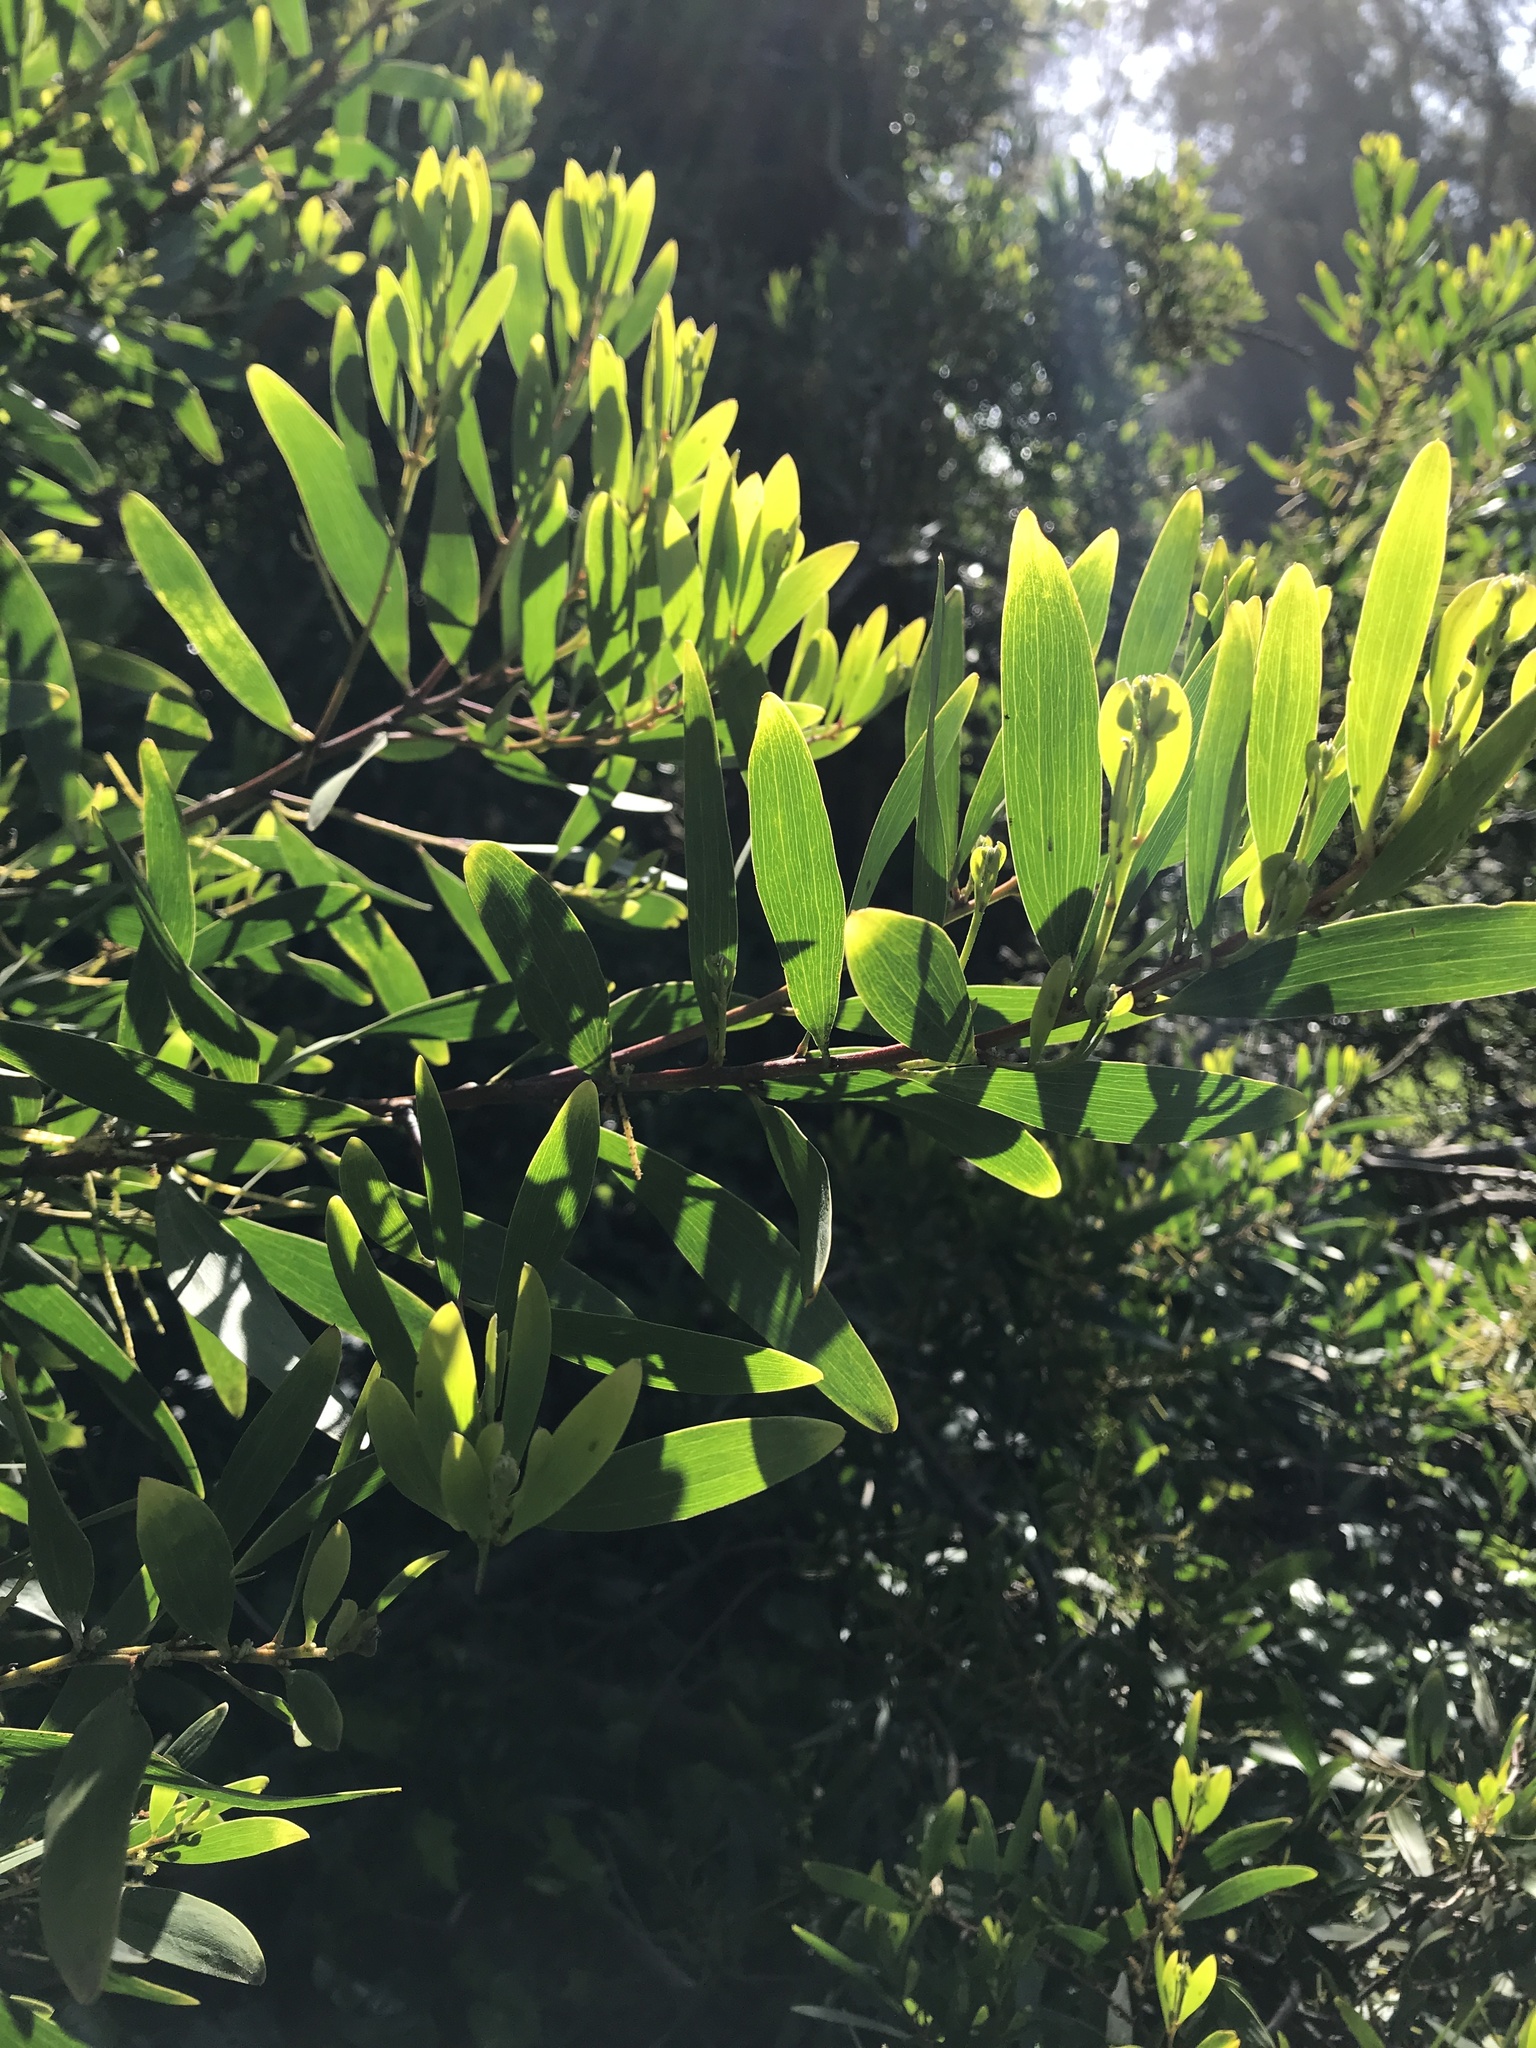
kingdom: Plantae
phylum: Tracheophyta
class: Magnoliopsida
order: Fabales
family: Fabaceae
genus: Acacia
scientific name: Acacia longifolia
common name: Sydney golden wattle
